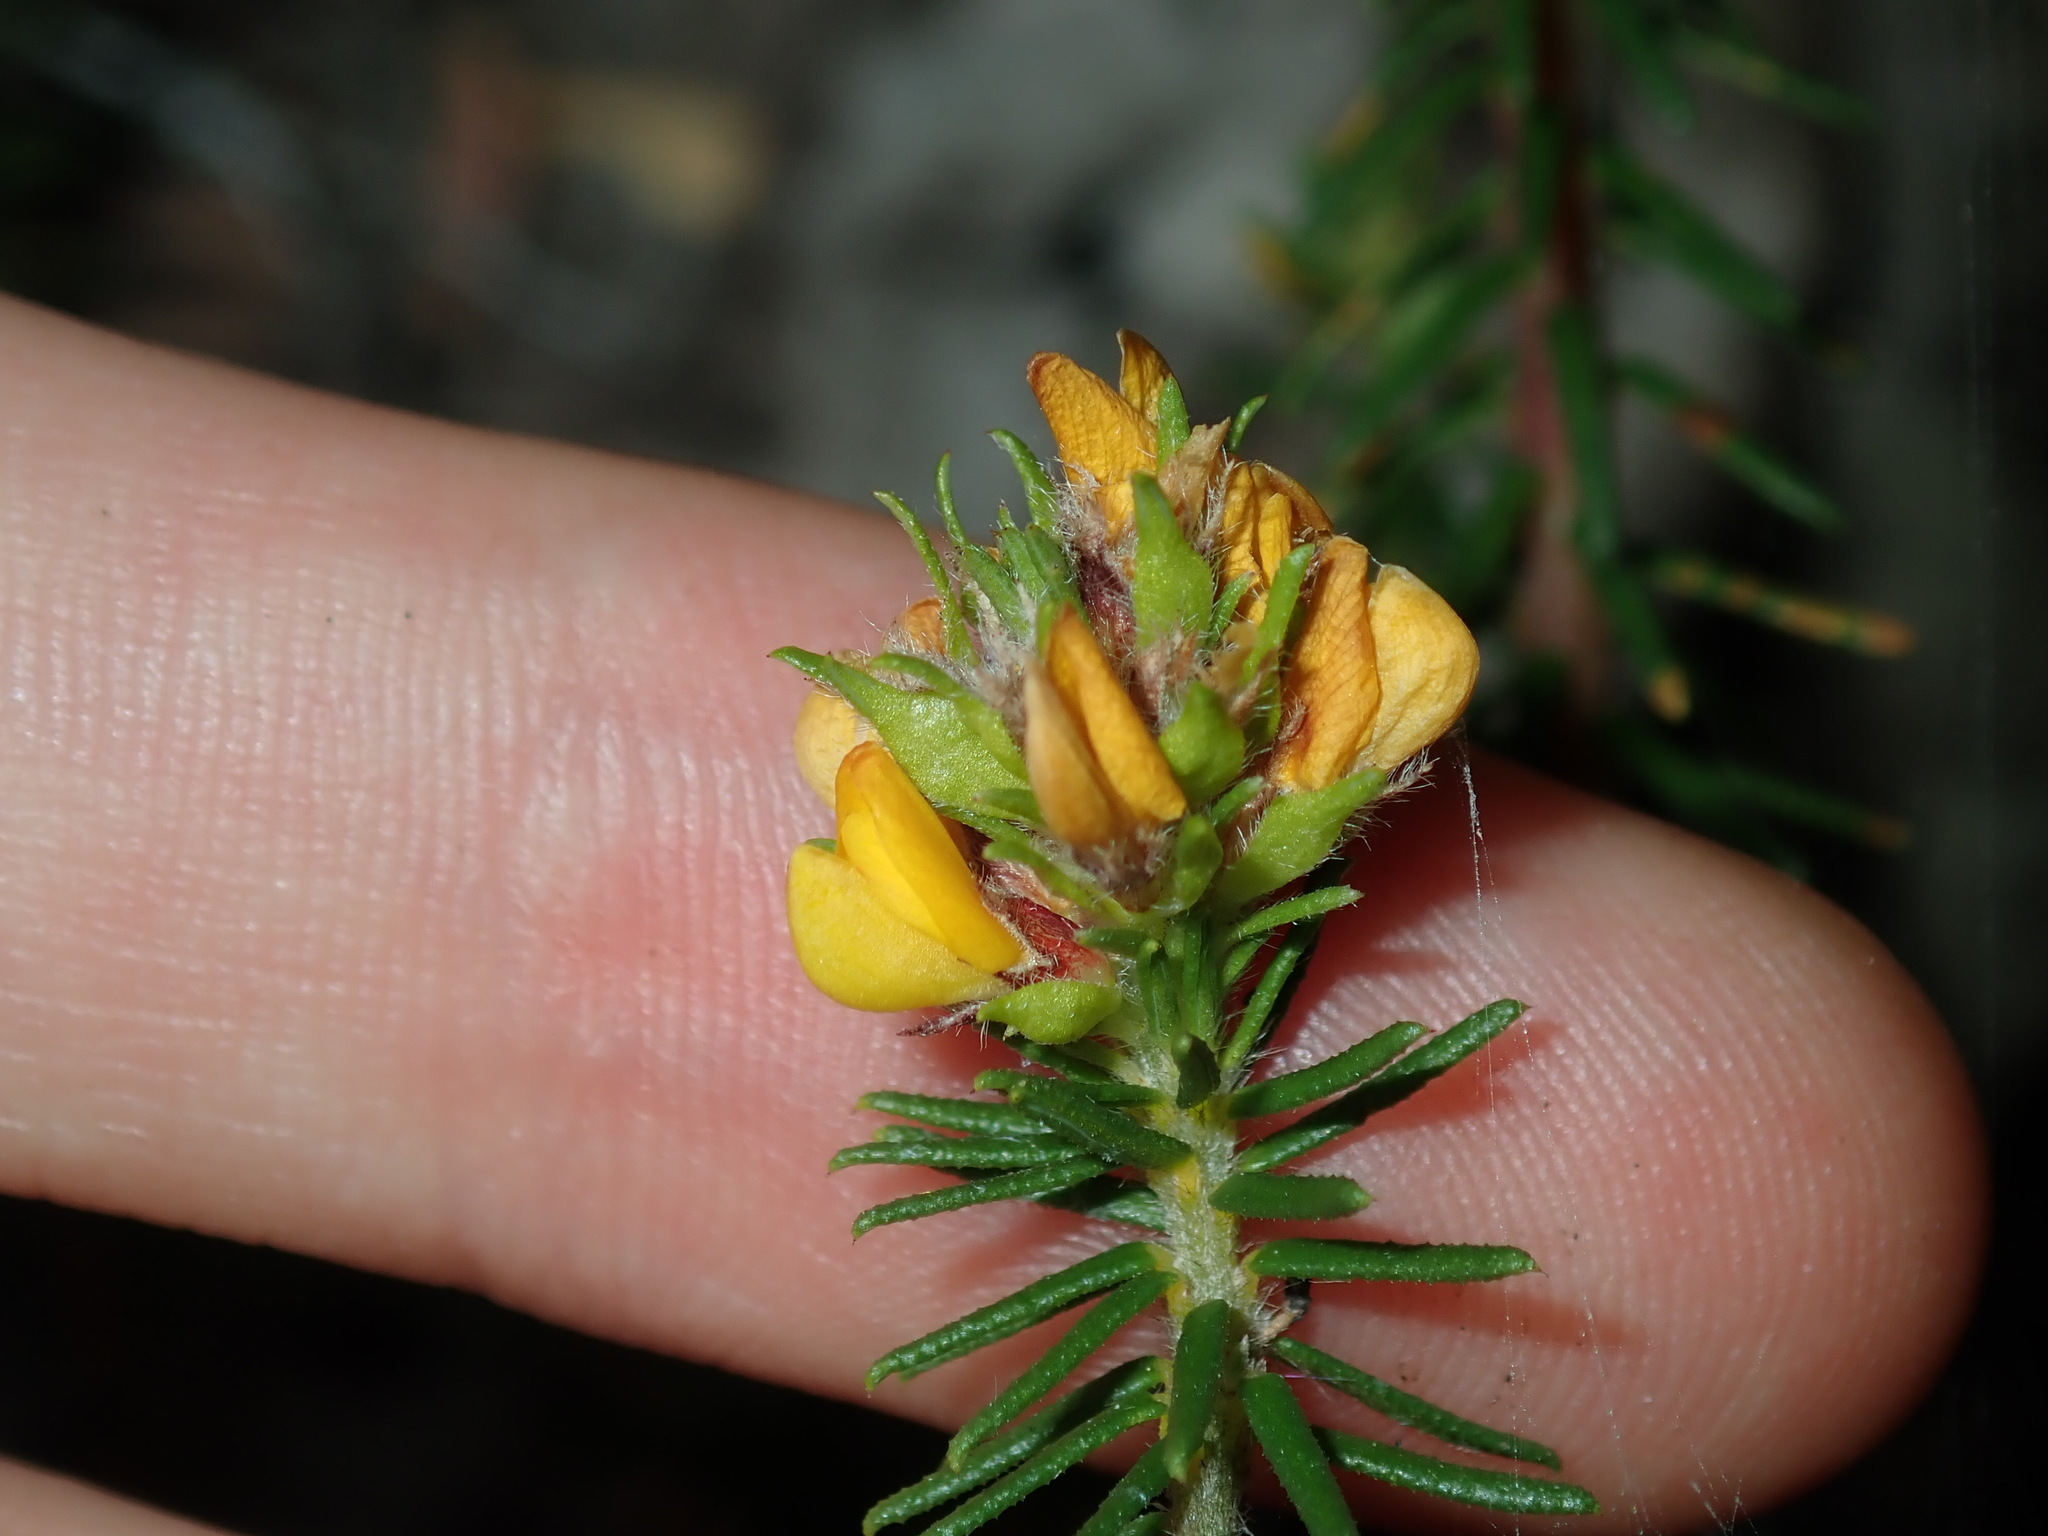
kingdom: Plantae
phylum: Tracheophyta
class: Magnoliopsida
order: Fabales
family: Fabaceae
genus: Phyllota
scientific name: Phyllota phylicoides
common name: Heath phyllota
